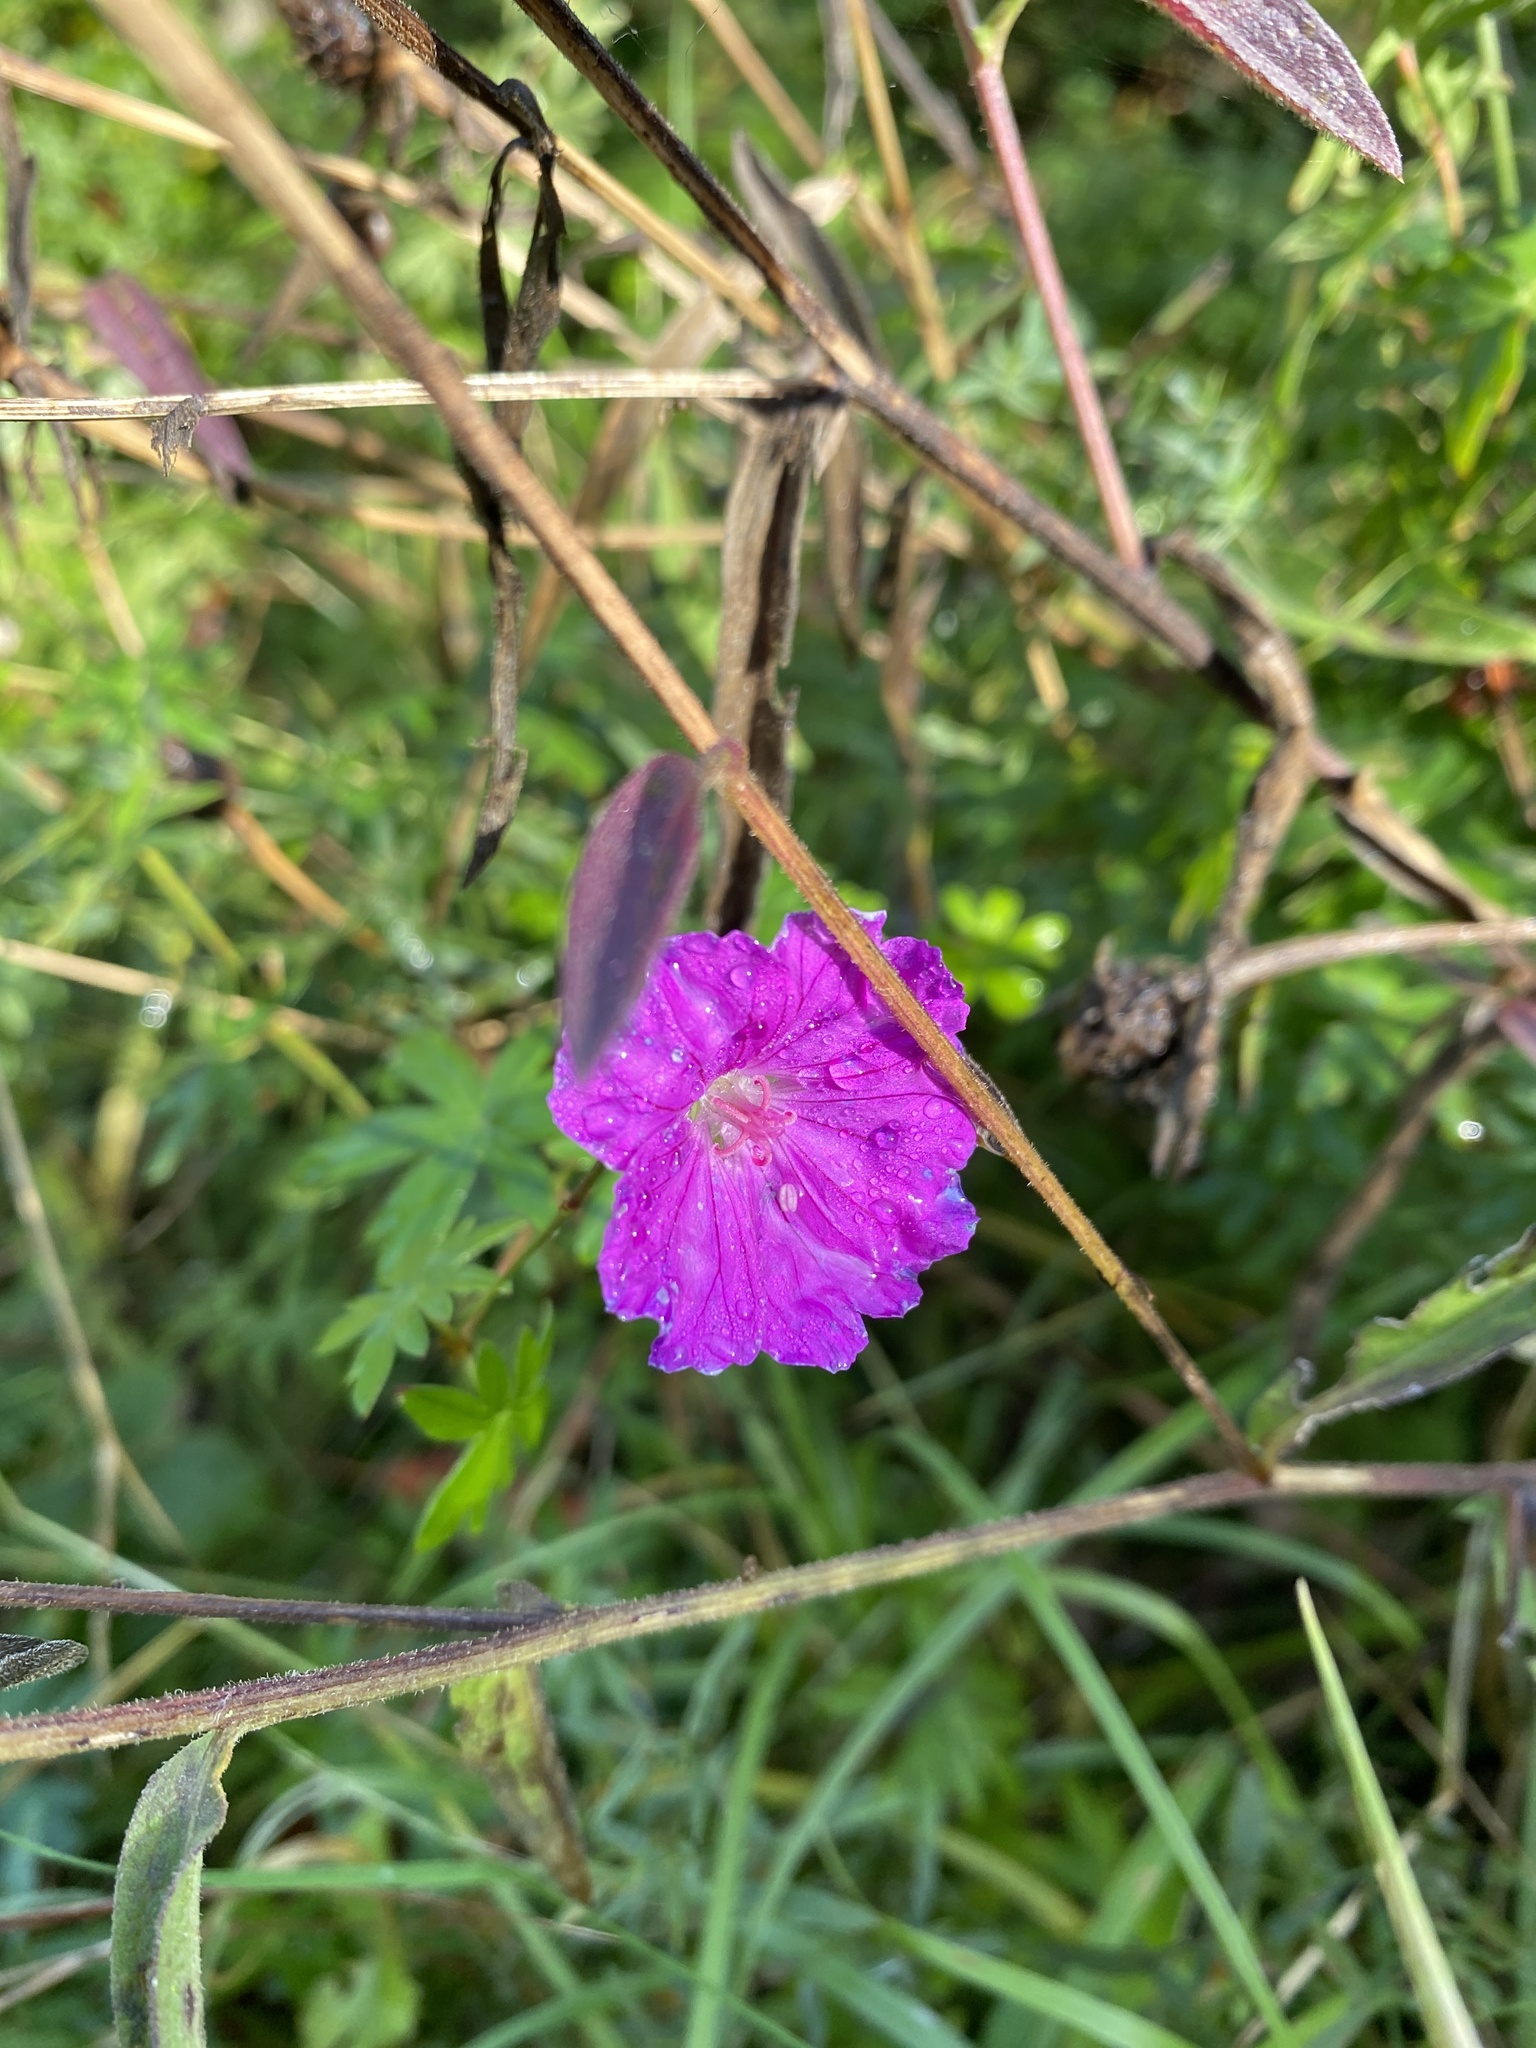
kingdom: Plantae
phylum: Tracheophyta
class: Magnoliopsida
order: Geraniales
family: Geraniaceae
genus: Geranium
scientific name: Geranium sanguineum
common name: Bloody crane's-bill
